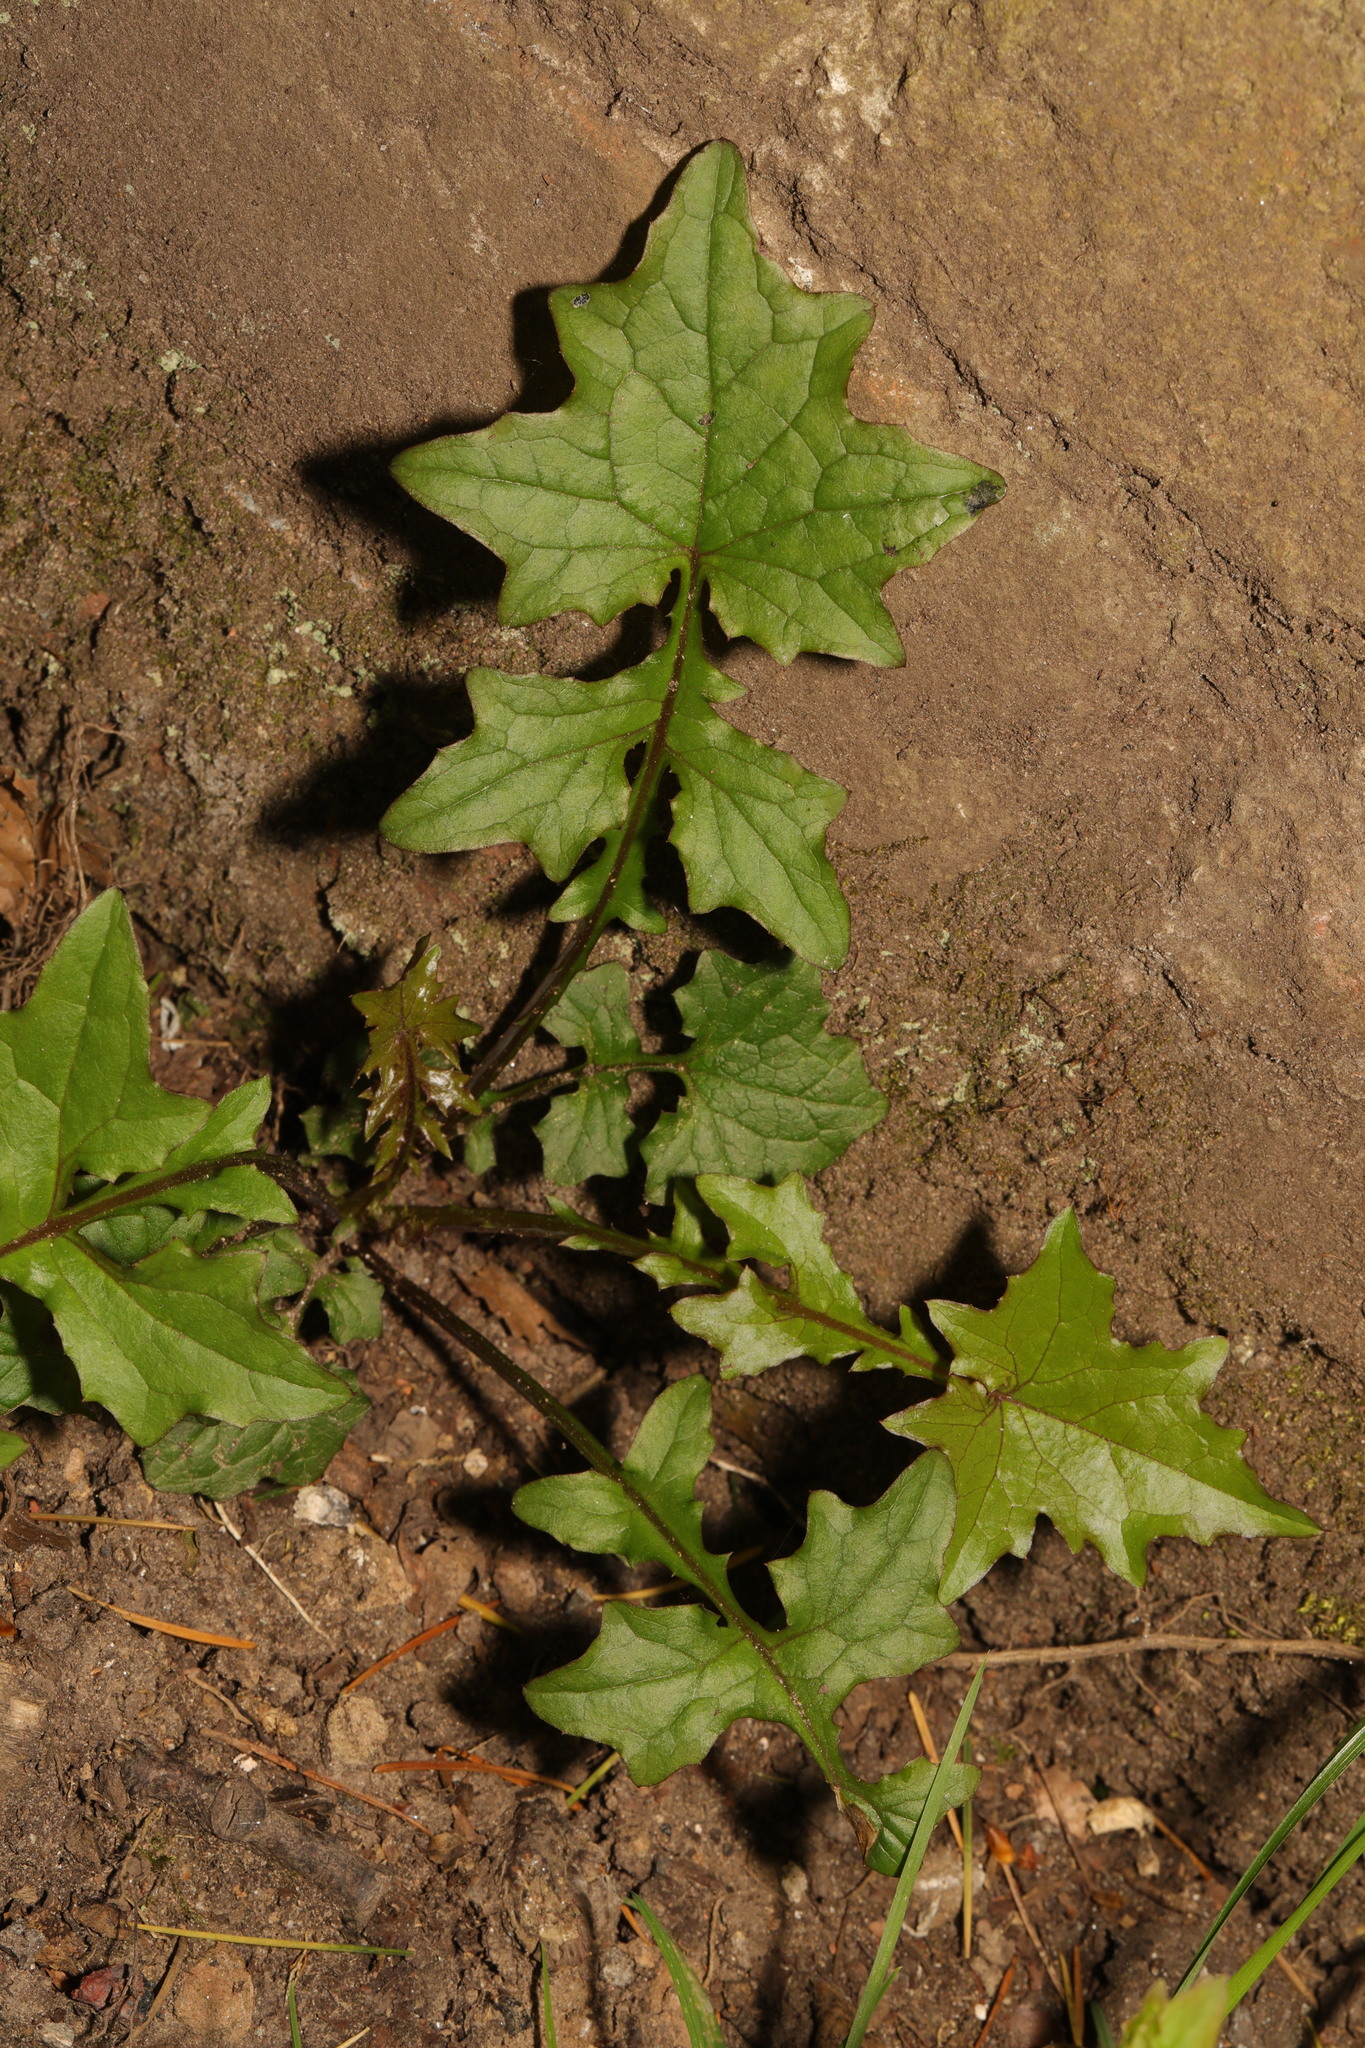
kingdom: Plantae
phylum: Tracheophyta
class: Magnoliopsida
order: Asterales
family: Asteraceae
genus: Mycelis
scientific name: Mycelis muralis
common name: Wall lettuce
